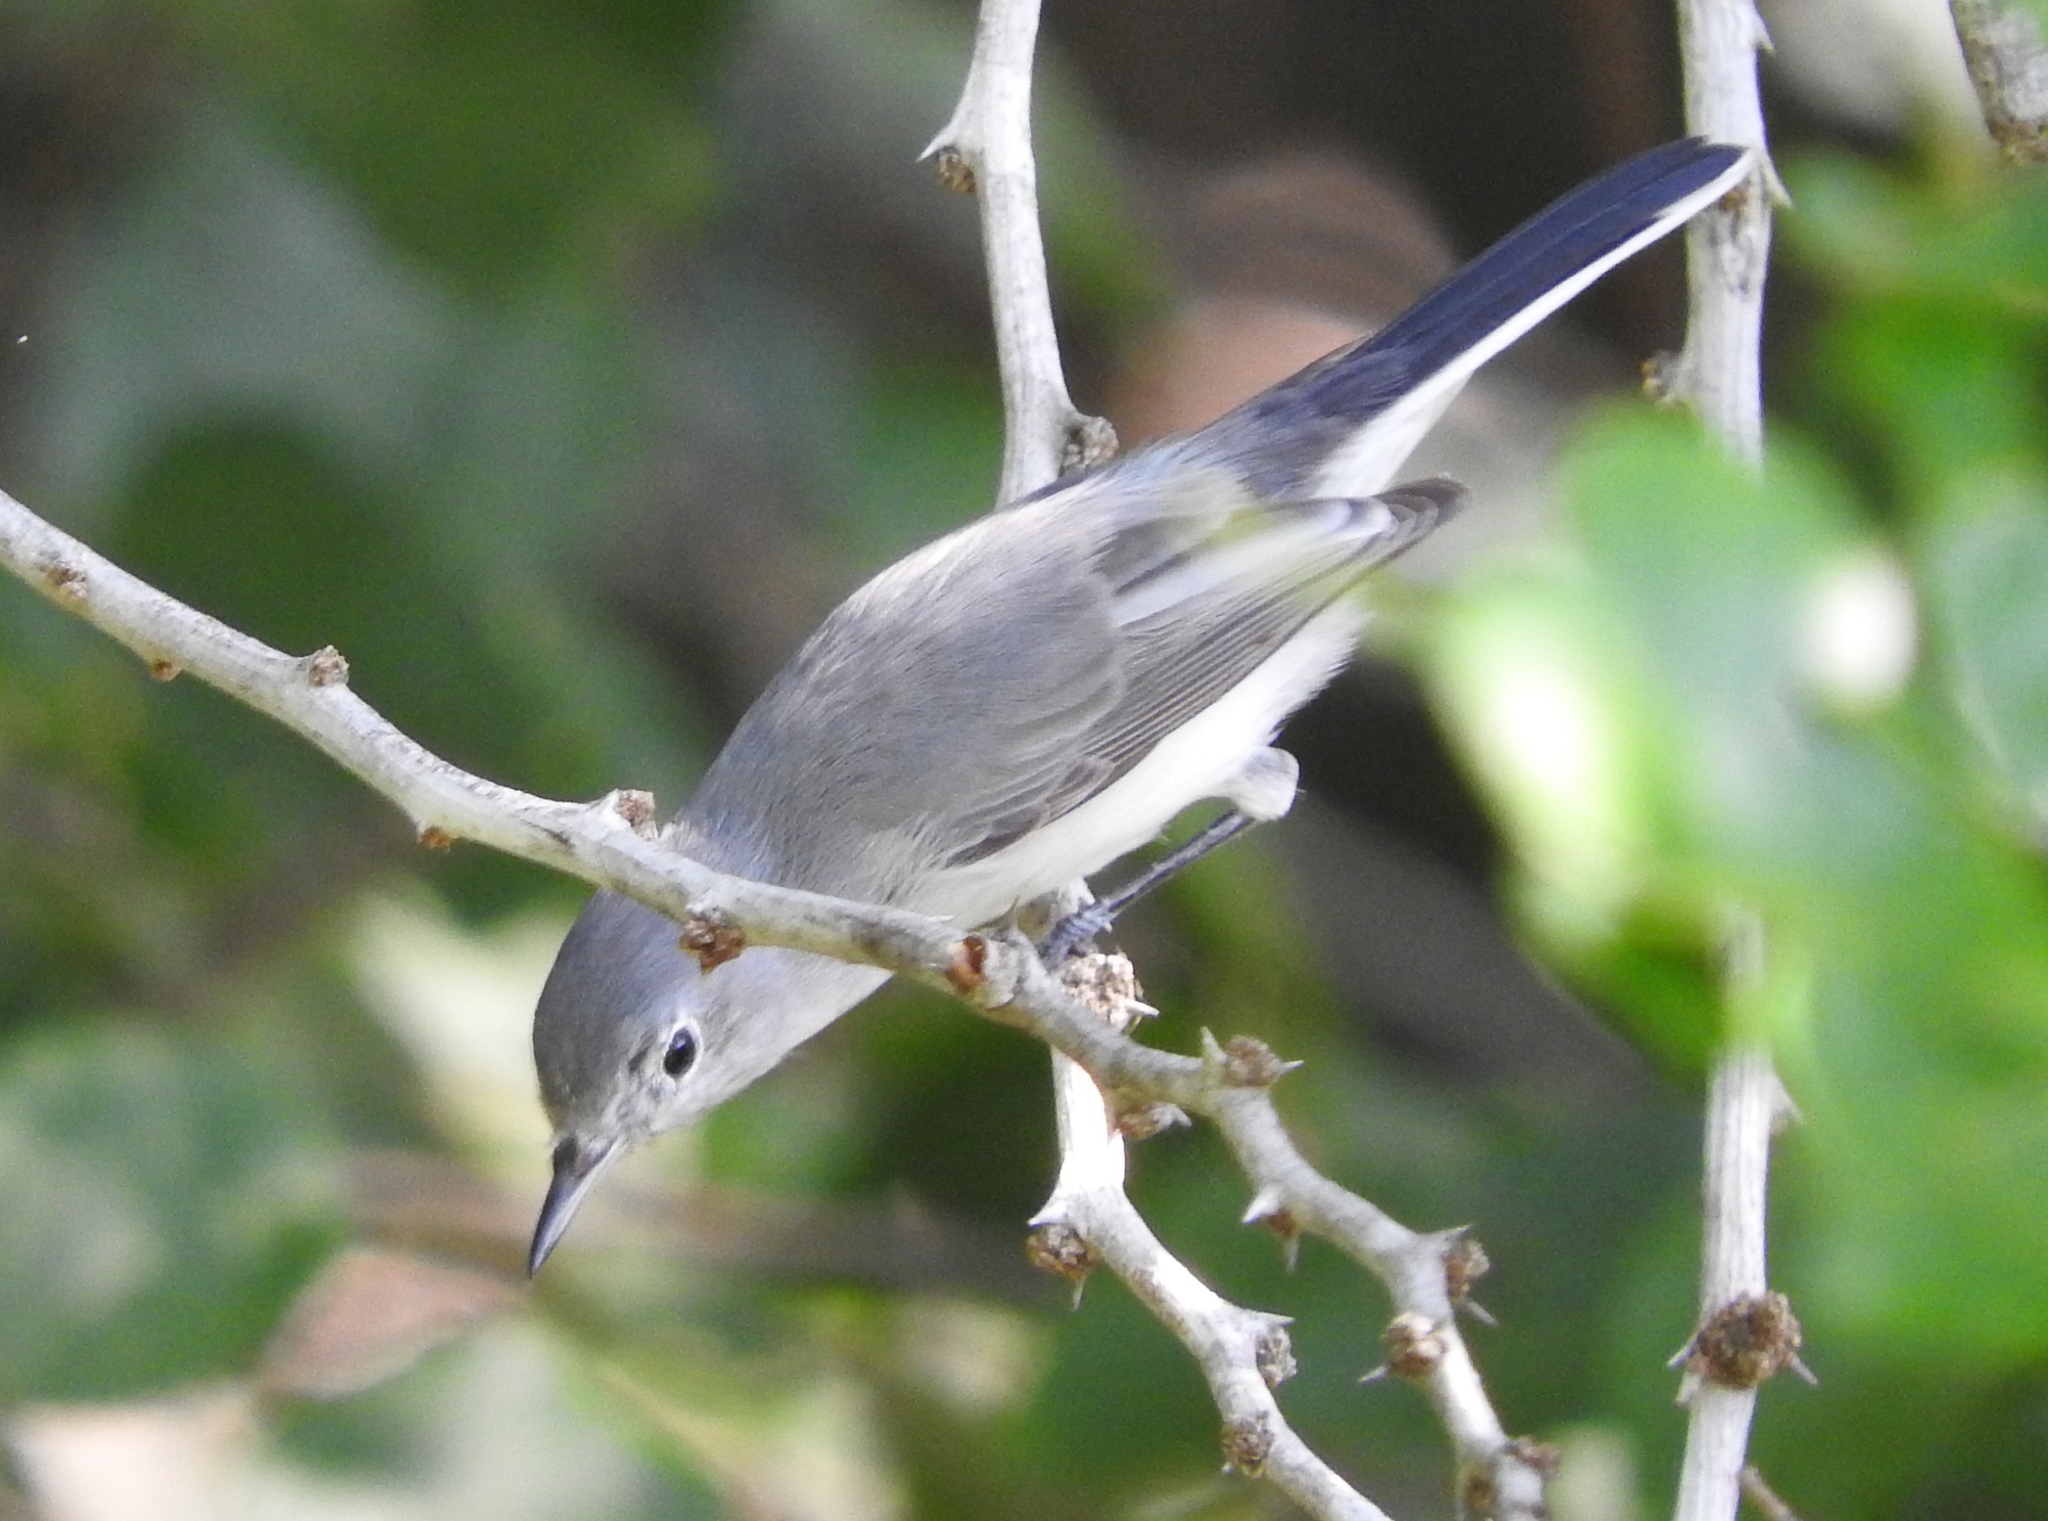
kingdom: Animalia
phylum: Chordata
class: Aves
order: Passeriformes
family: Polioptilidae
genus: Polioptila
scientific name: Polioptila caerulea
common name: Blue-gray gnatcatcher
